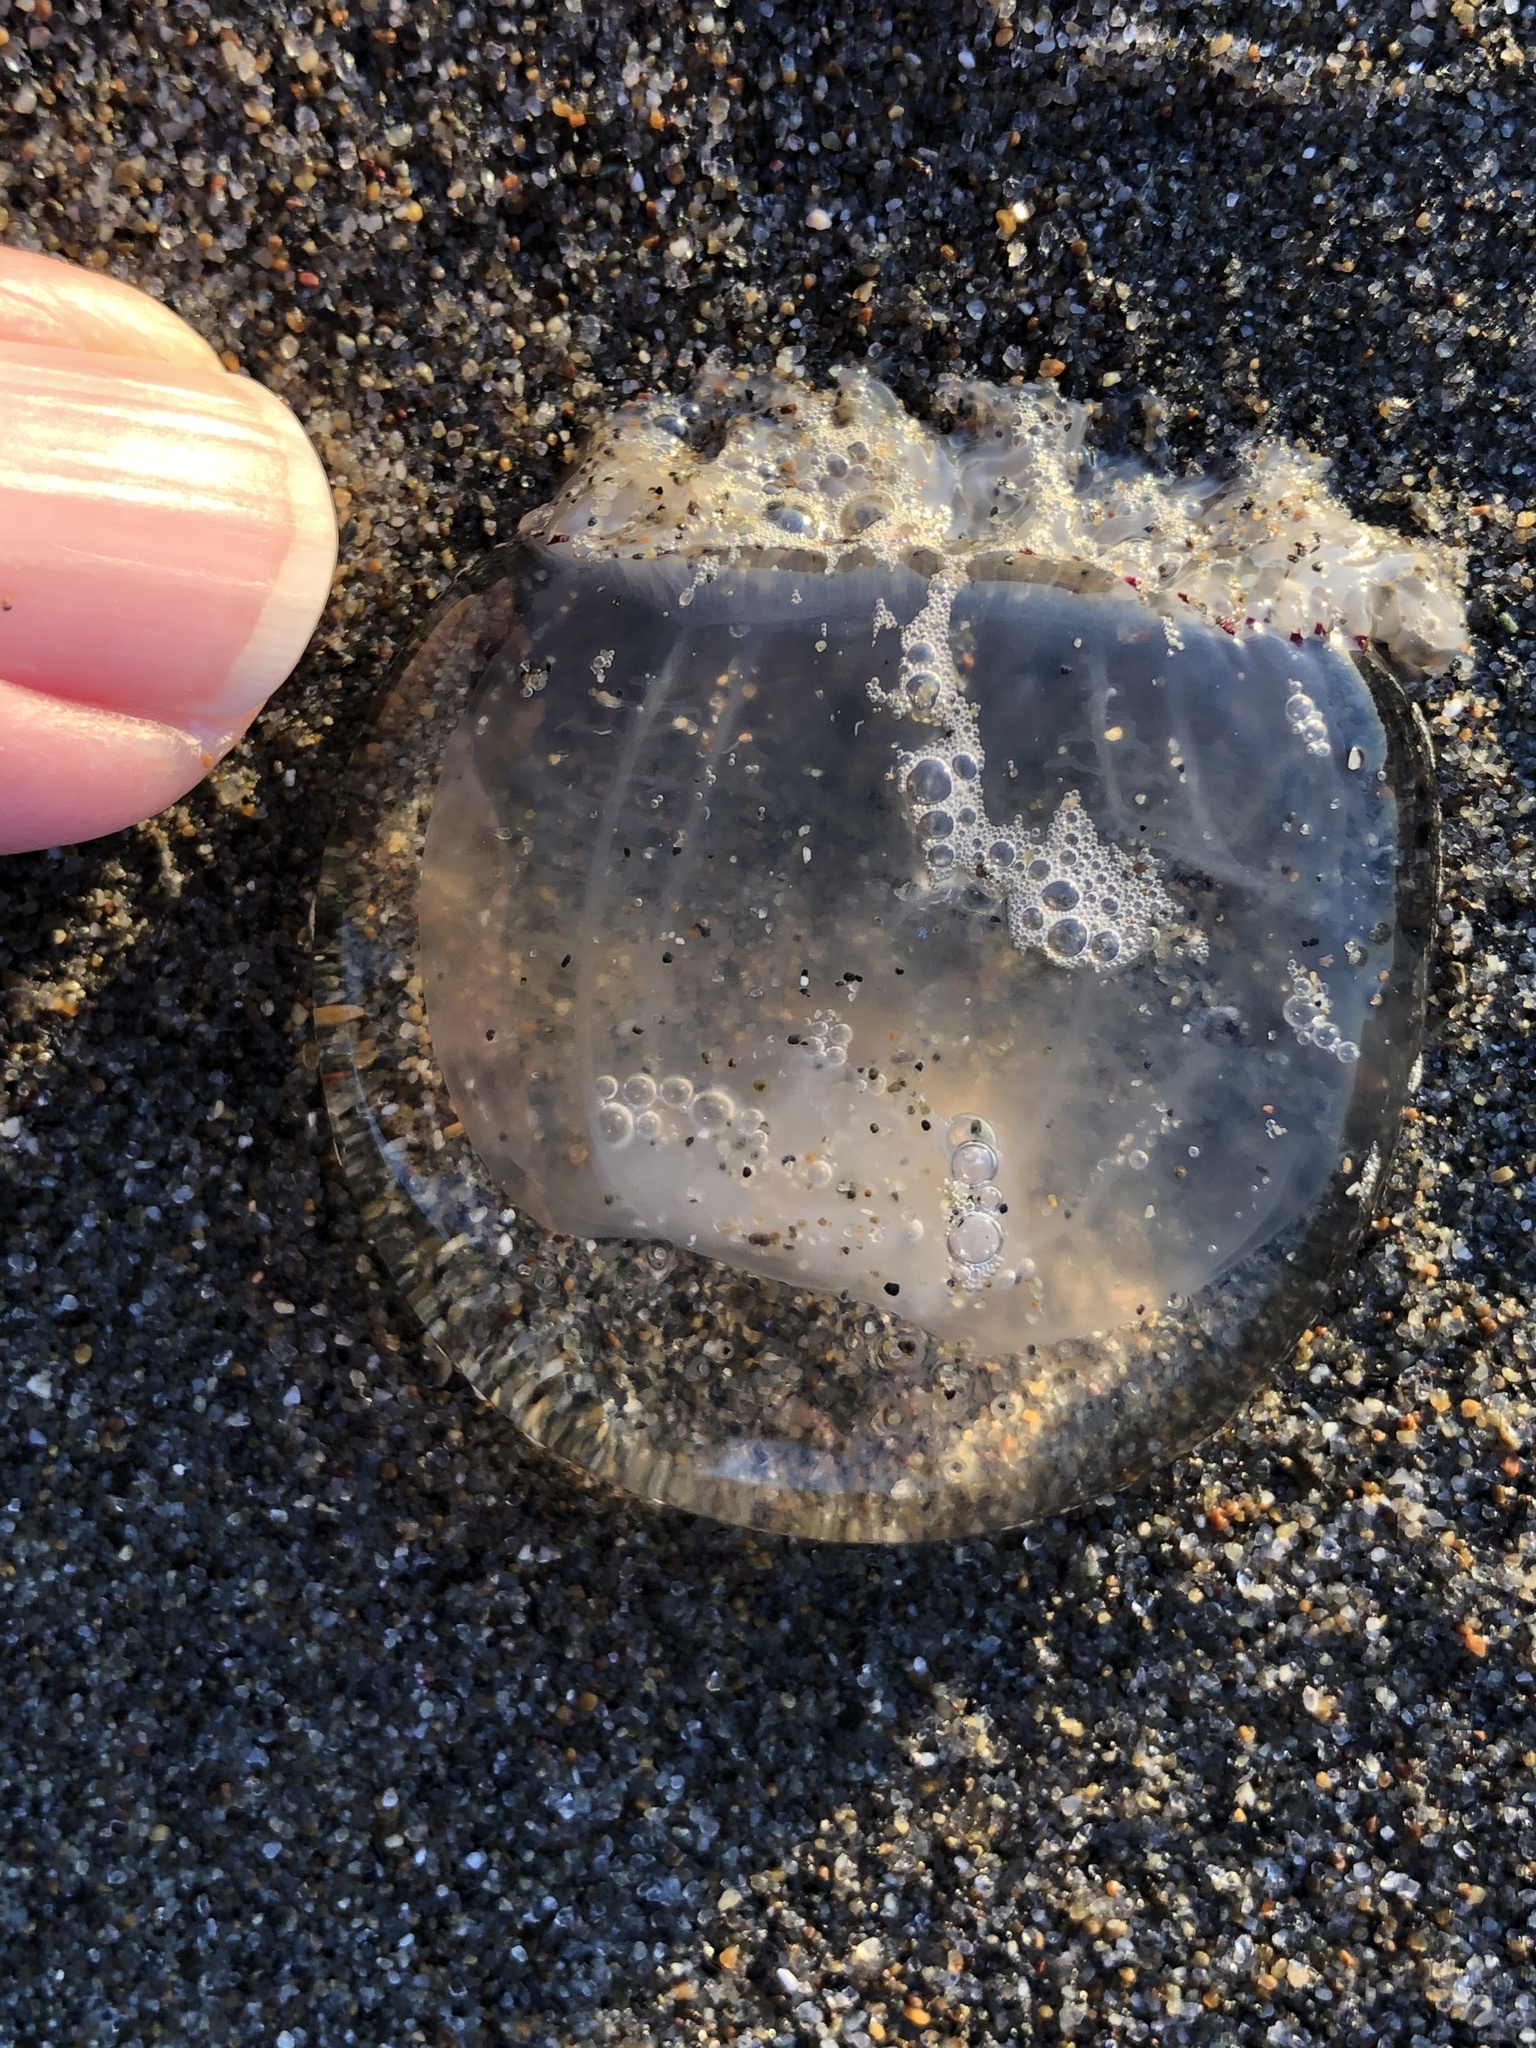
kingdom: Animalia
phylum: Cnidaria
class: Hydrozoa
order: Anthoathecata
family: Corynidae
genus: Polyorchis
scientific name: Polyorchis penicillatus
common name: Penicillate jellyfish
